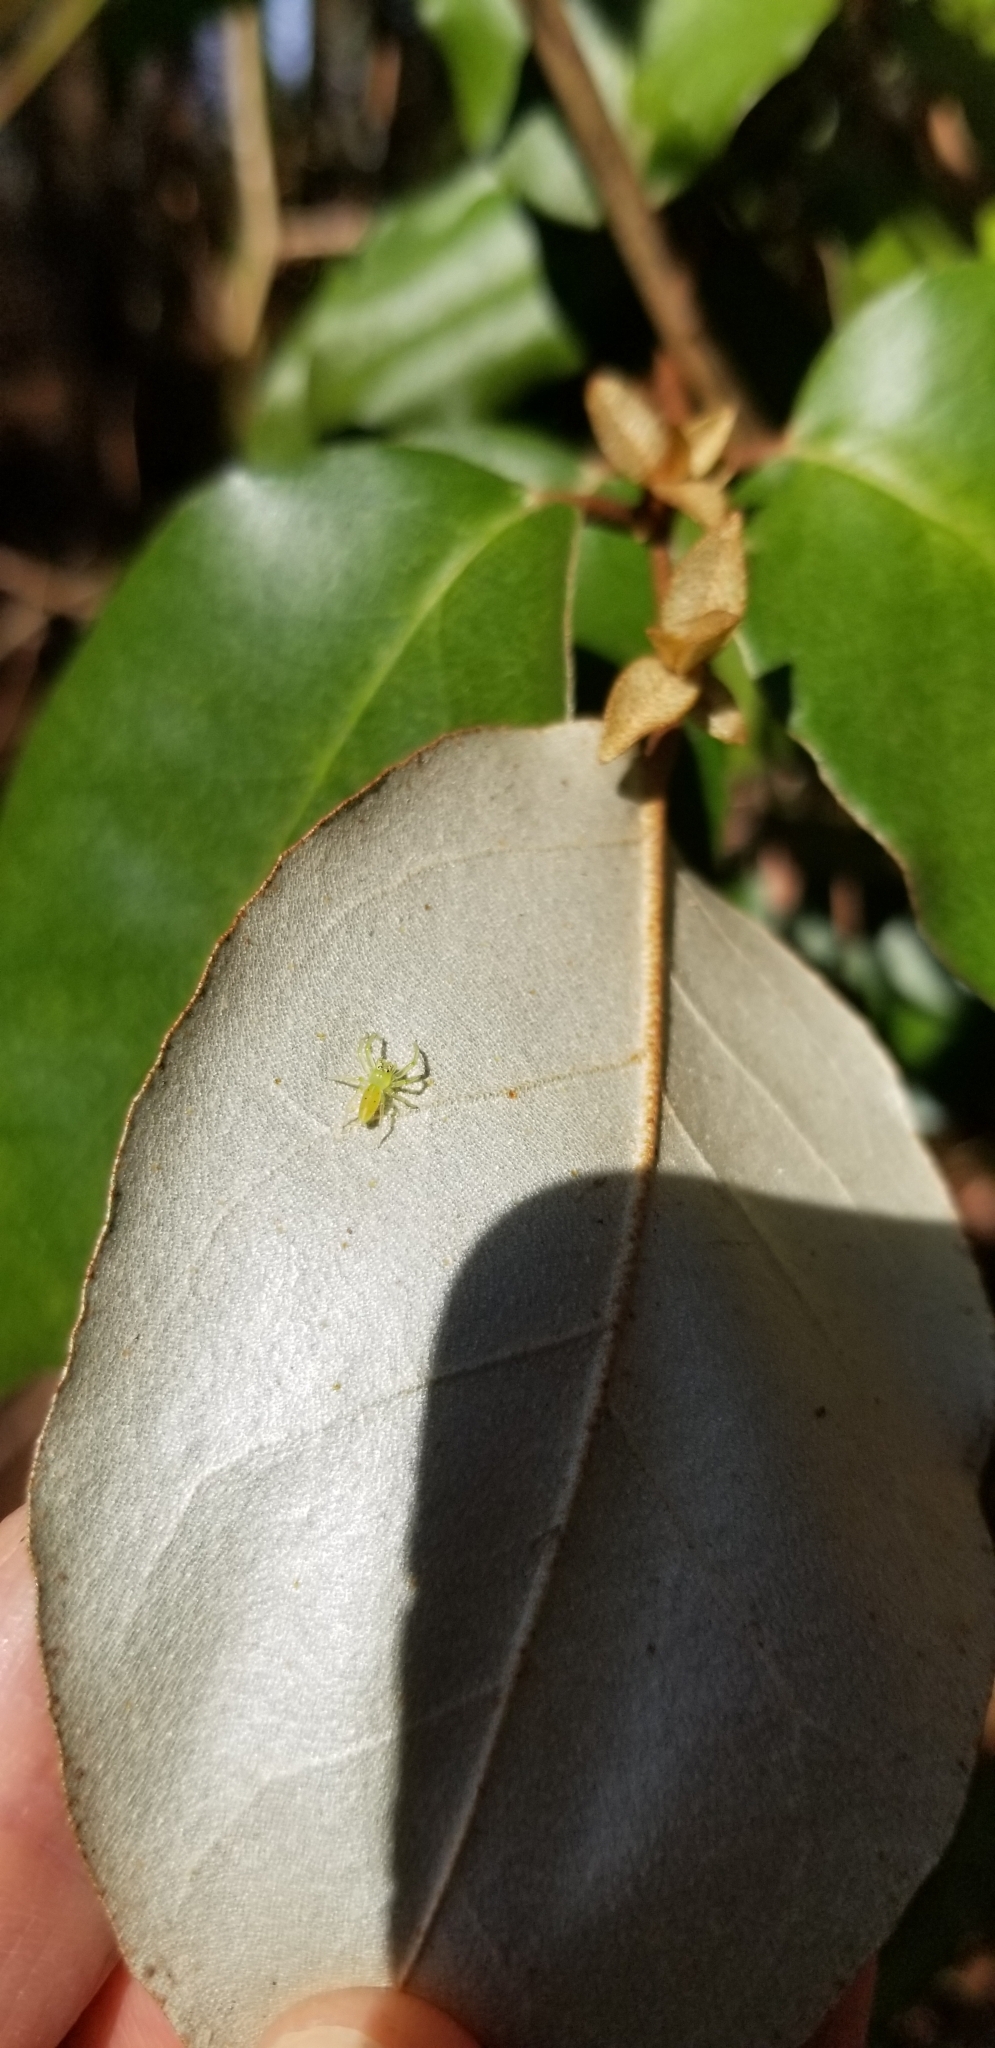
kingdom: Animalia
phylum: Arthropoda
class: Arachnida
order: Araneae
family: Salticidae
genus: Lyssomanes
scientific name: Lyssomanes viridis
